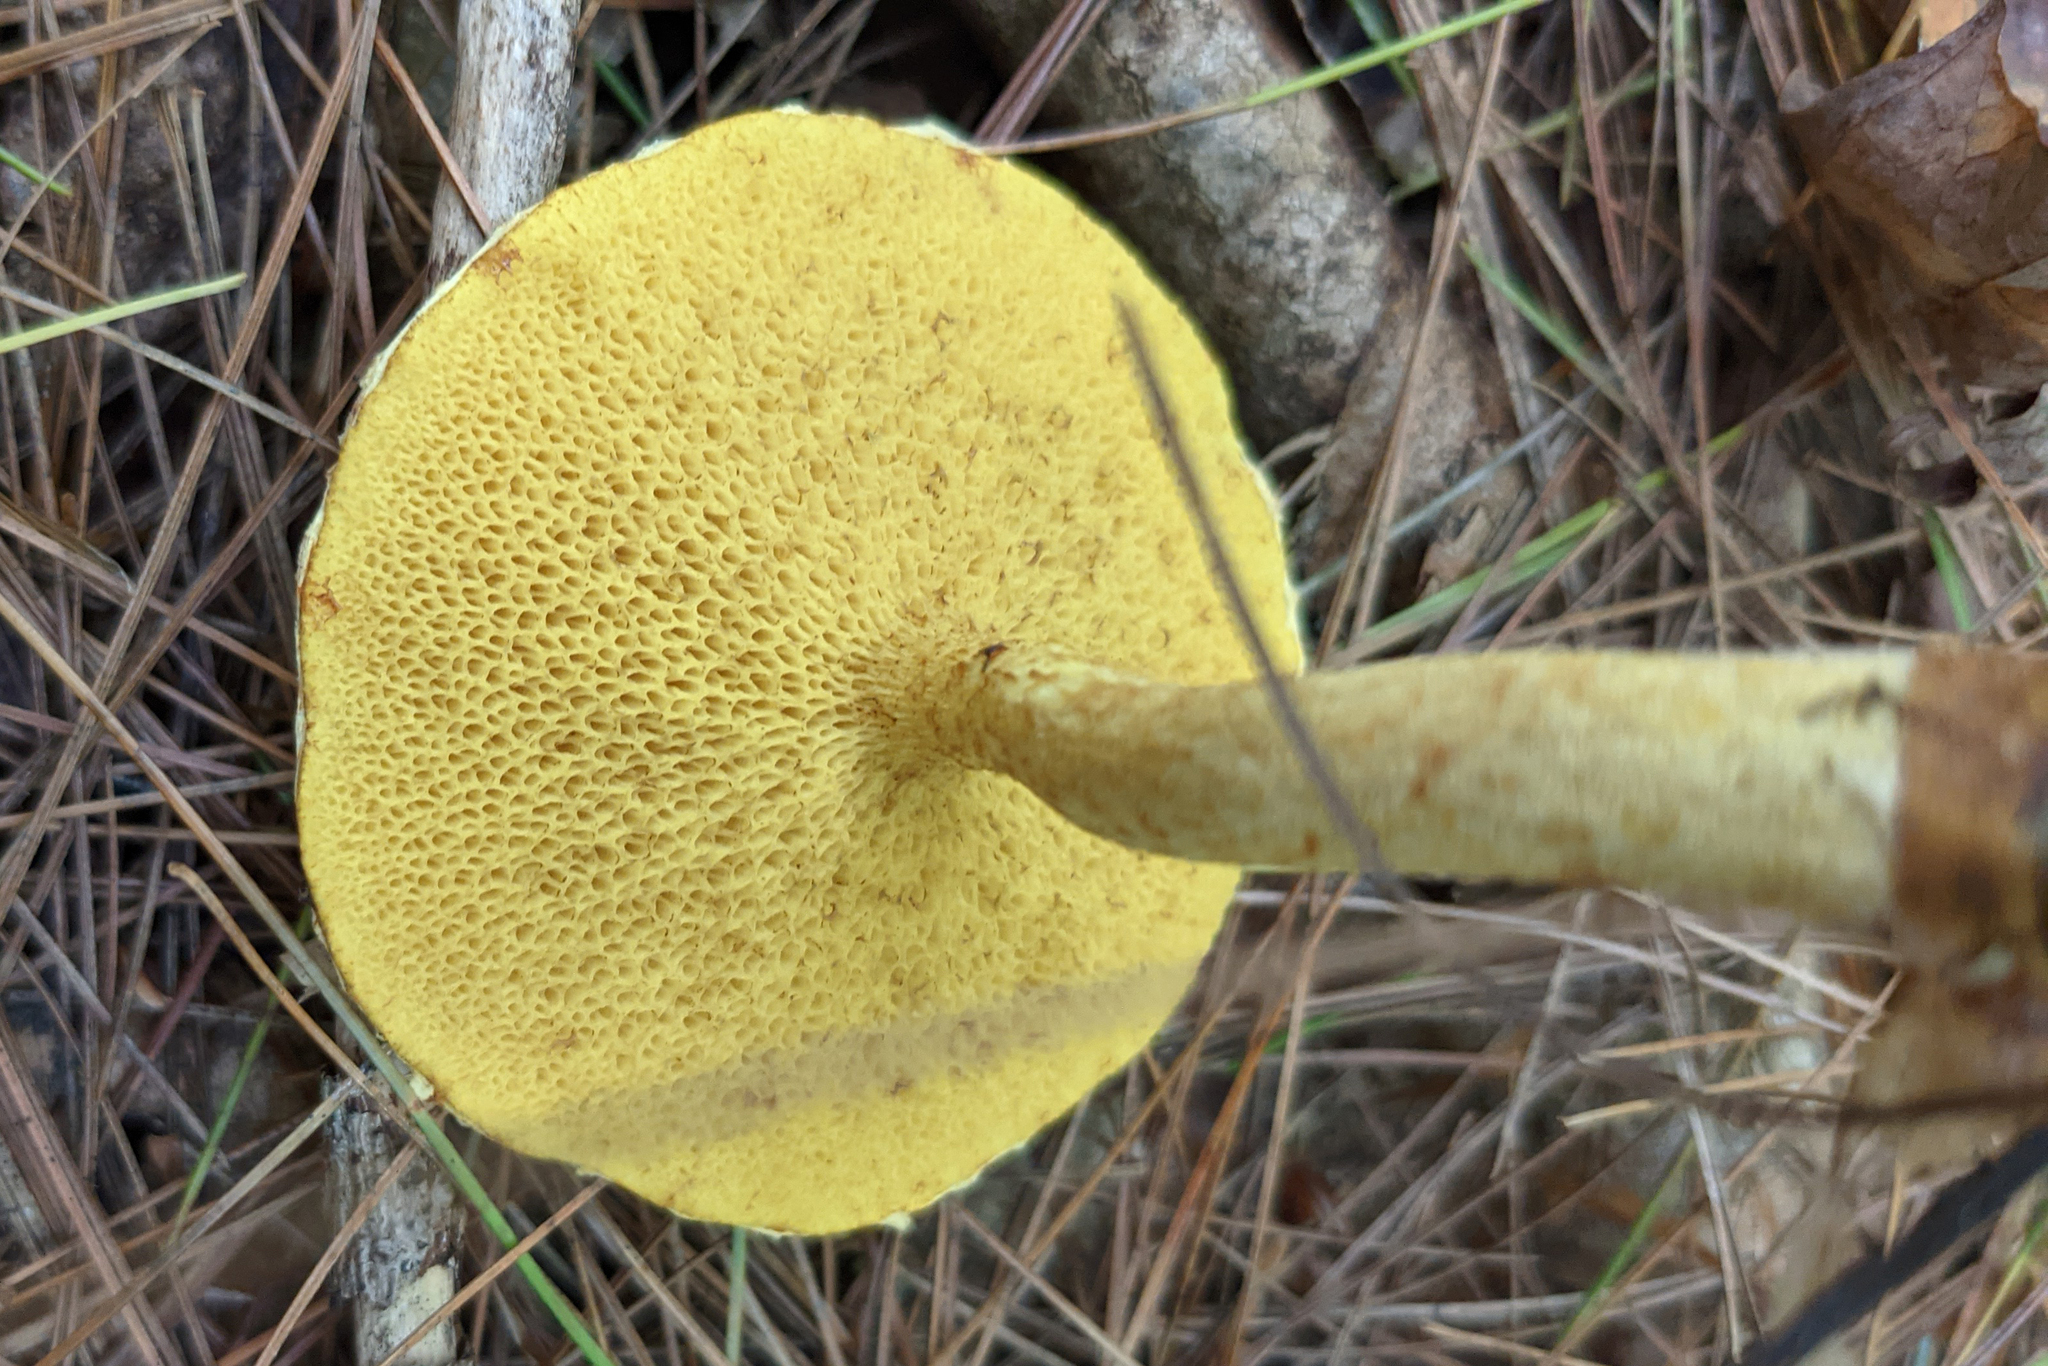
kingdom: Fungi
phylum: Basidiomycota
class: Agaricomycetes
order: Boletales
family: Suillaceae
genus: Suillus
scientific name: Suillus americanus
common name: Chicken fat mushroom
